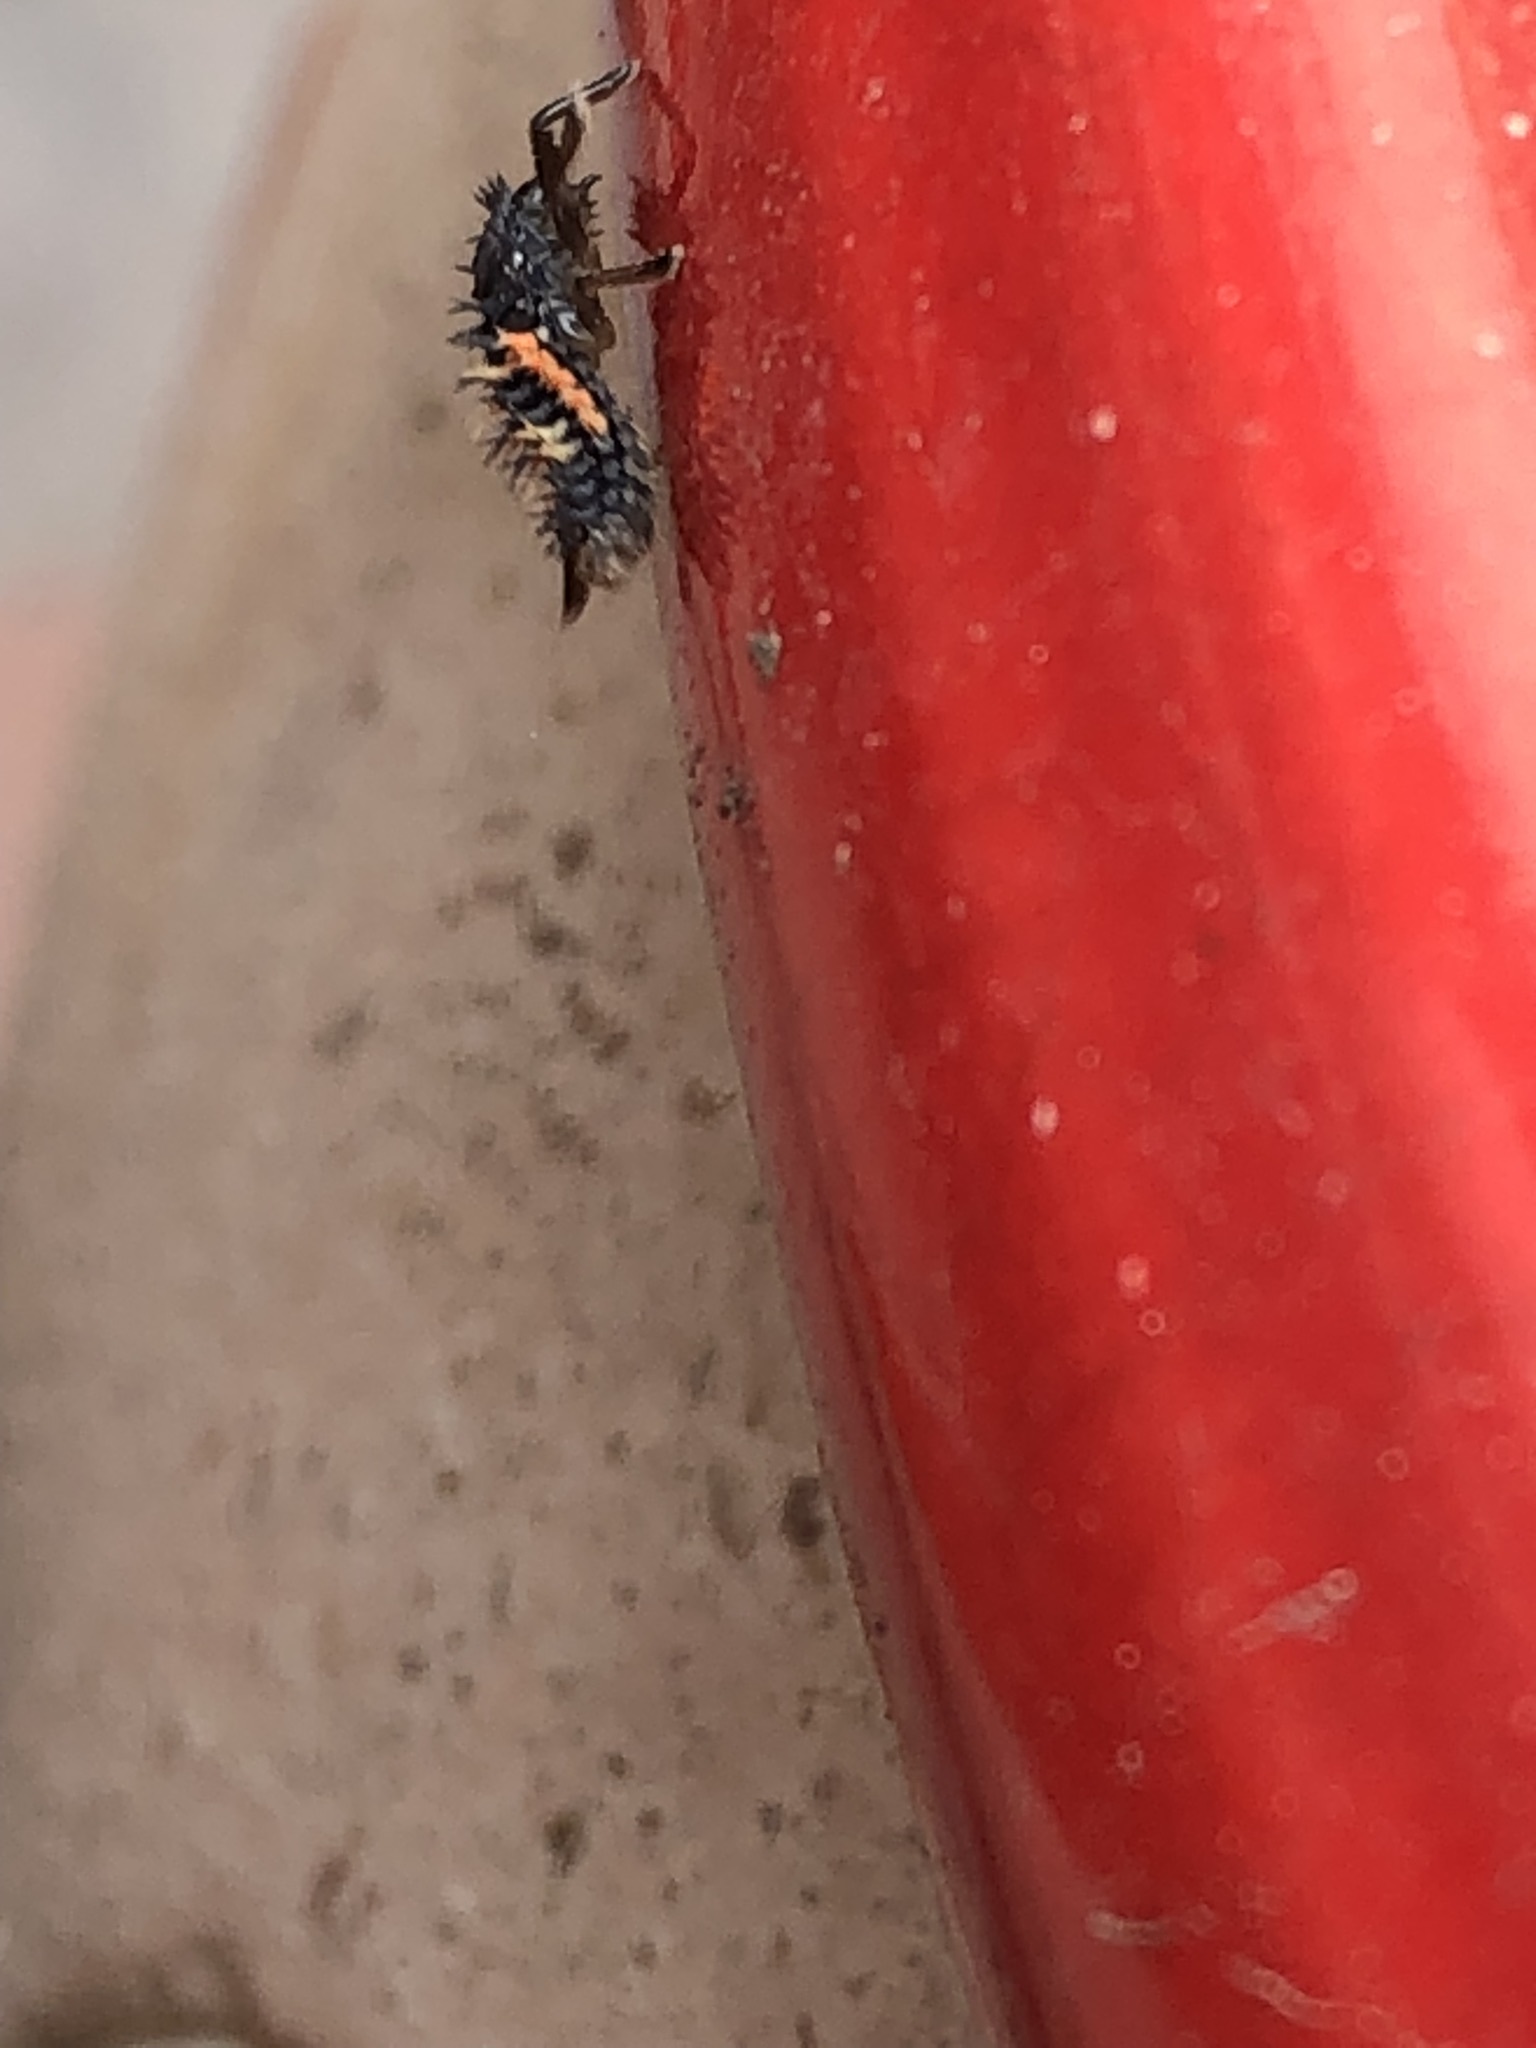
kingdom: Animalia
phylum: Arthropoda
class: Insecta
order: Coleoptera
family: Coccinellidae
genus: Harmonia
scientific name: Harmonia axyridis
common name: Harlequin ladybird
